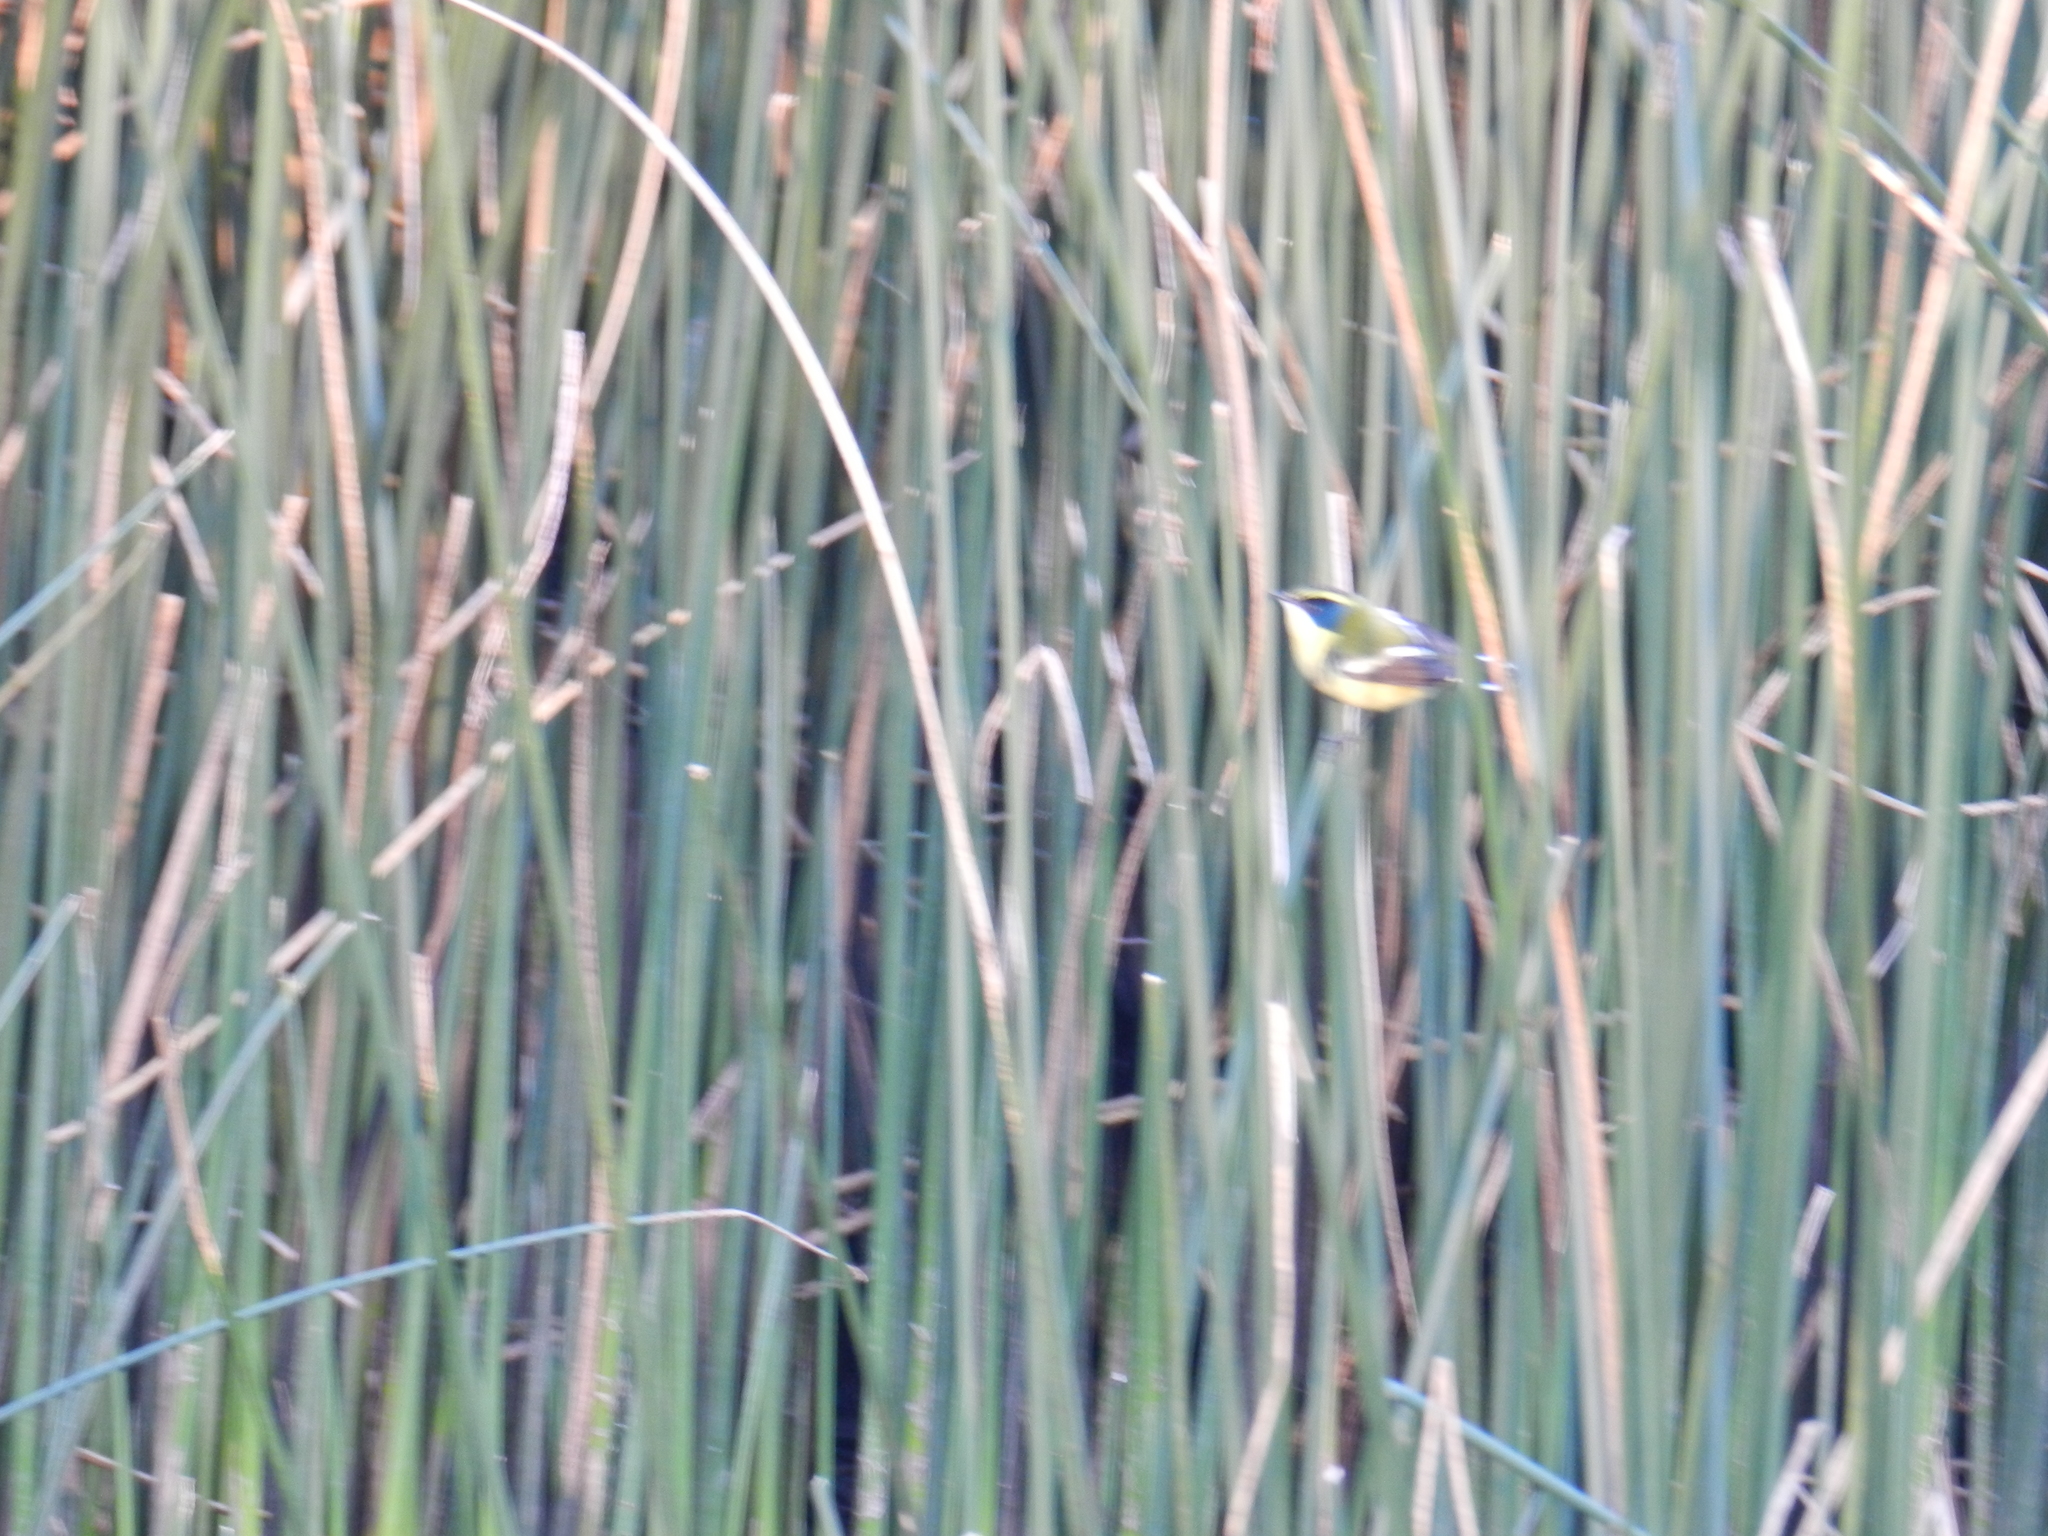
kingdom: Animalia
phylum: Chordata
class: Aves
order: Passeriformes
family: Tyrannidae
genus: Tachuris
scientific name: Tachuris rubrigastra
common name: Many-colored rush tyrant
